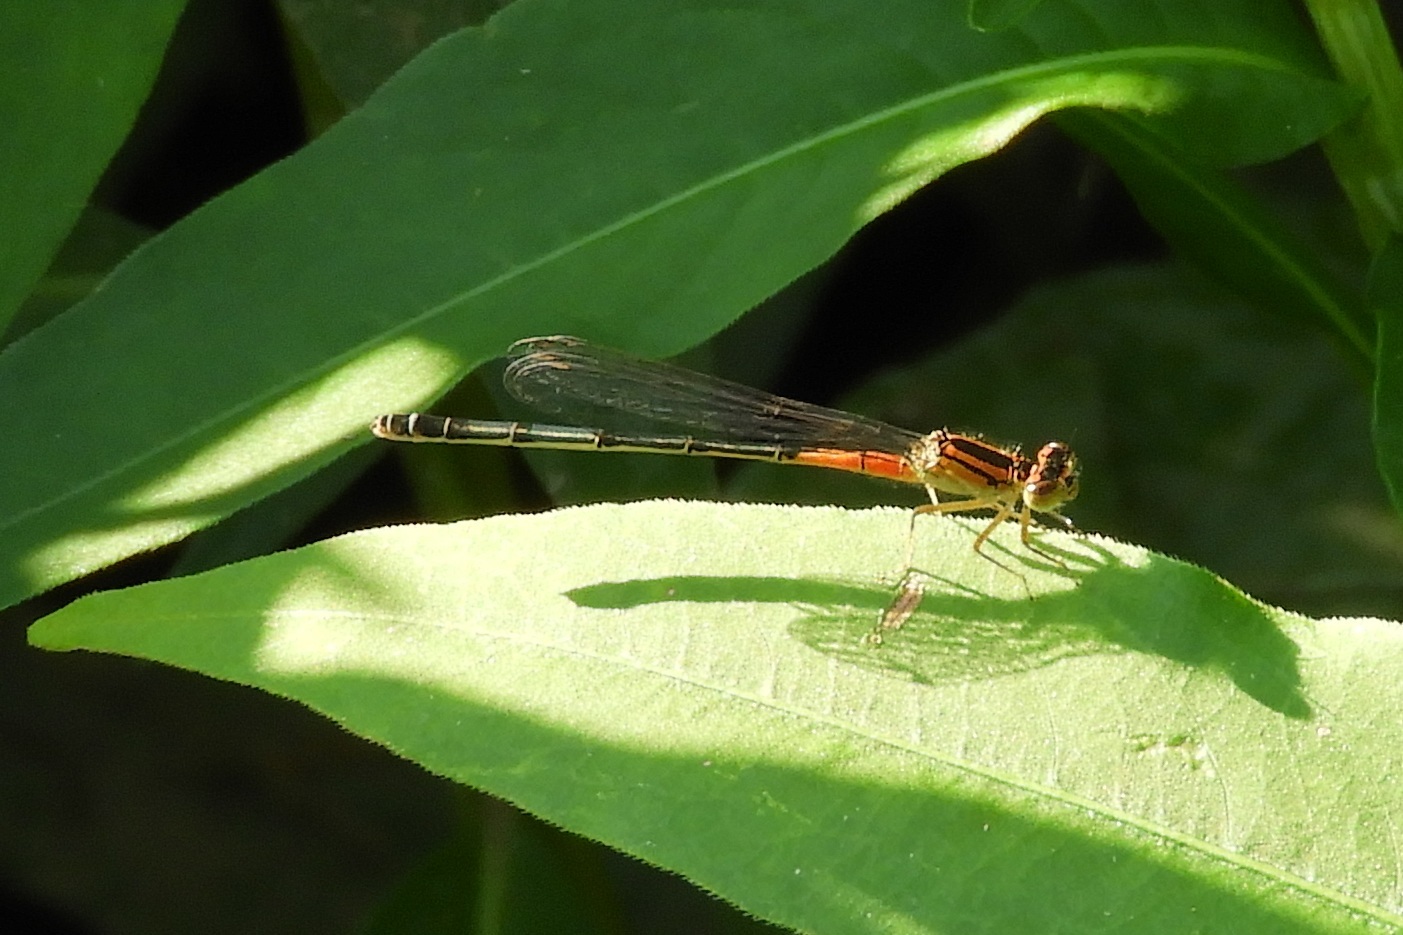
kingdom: Animalia
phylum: Arthropoda
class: Insecta
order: Odonata
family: Coenagrionidae
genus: Ischnura
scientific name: Ischnura verticalis
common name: Eastern forktail
